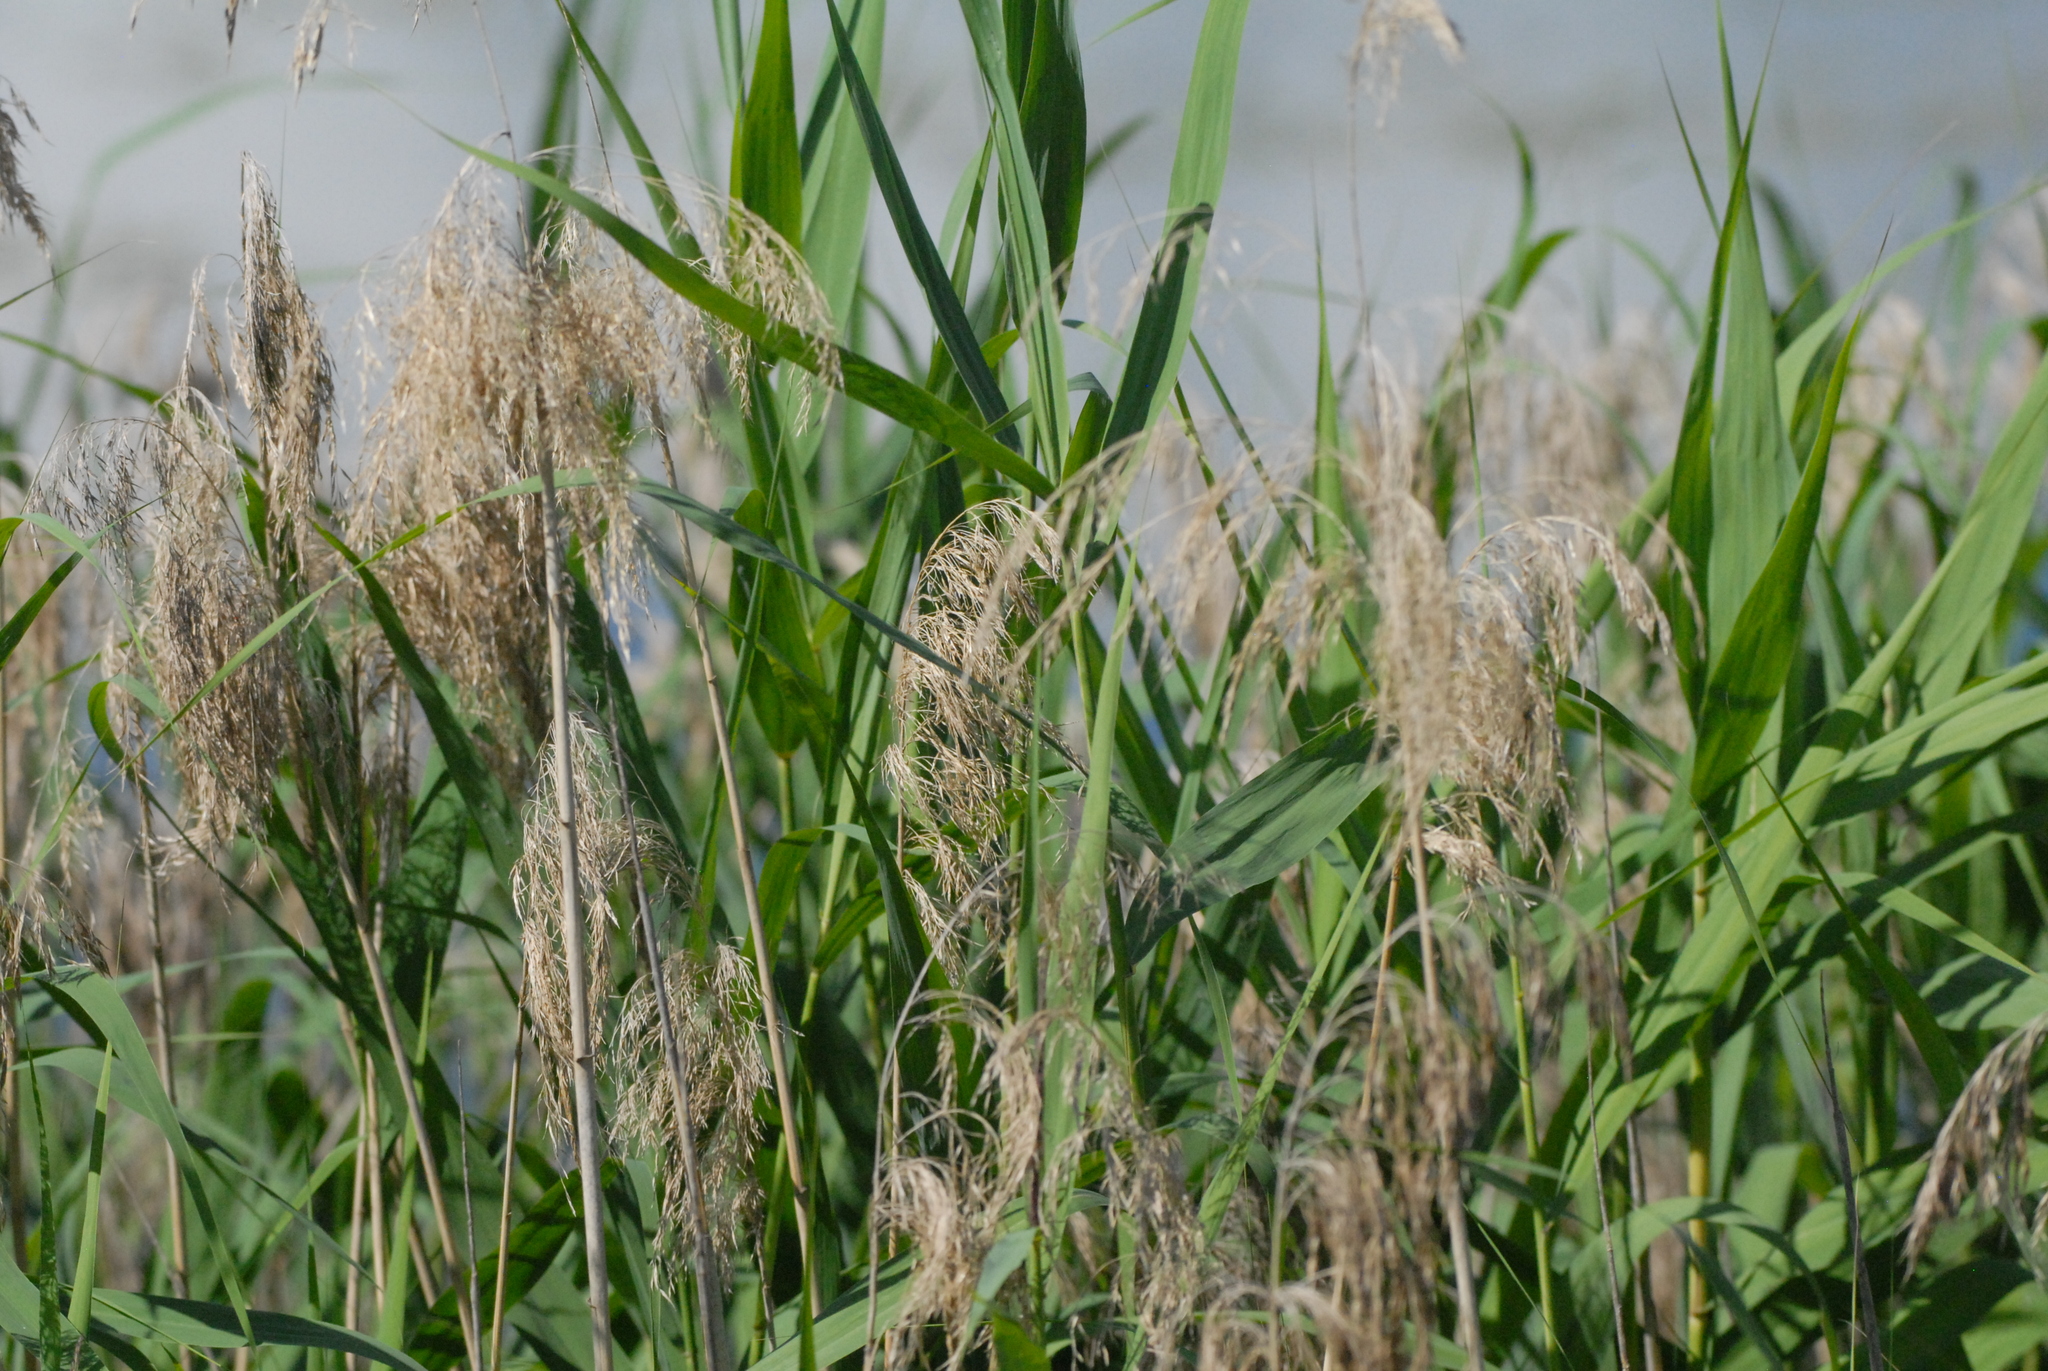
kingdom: Plantae
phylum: Tracheophyta
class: Liliopsida
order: Poales
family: Poaceae
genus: Phragmites
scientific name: Phragmites australis
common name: Common reed
